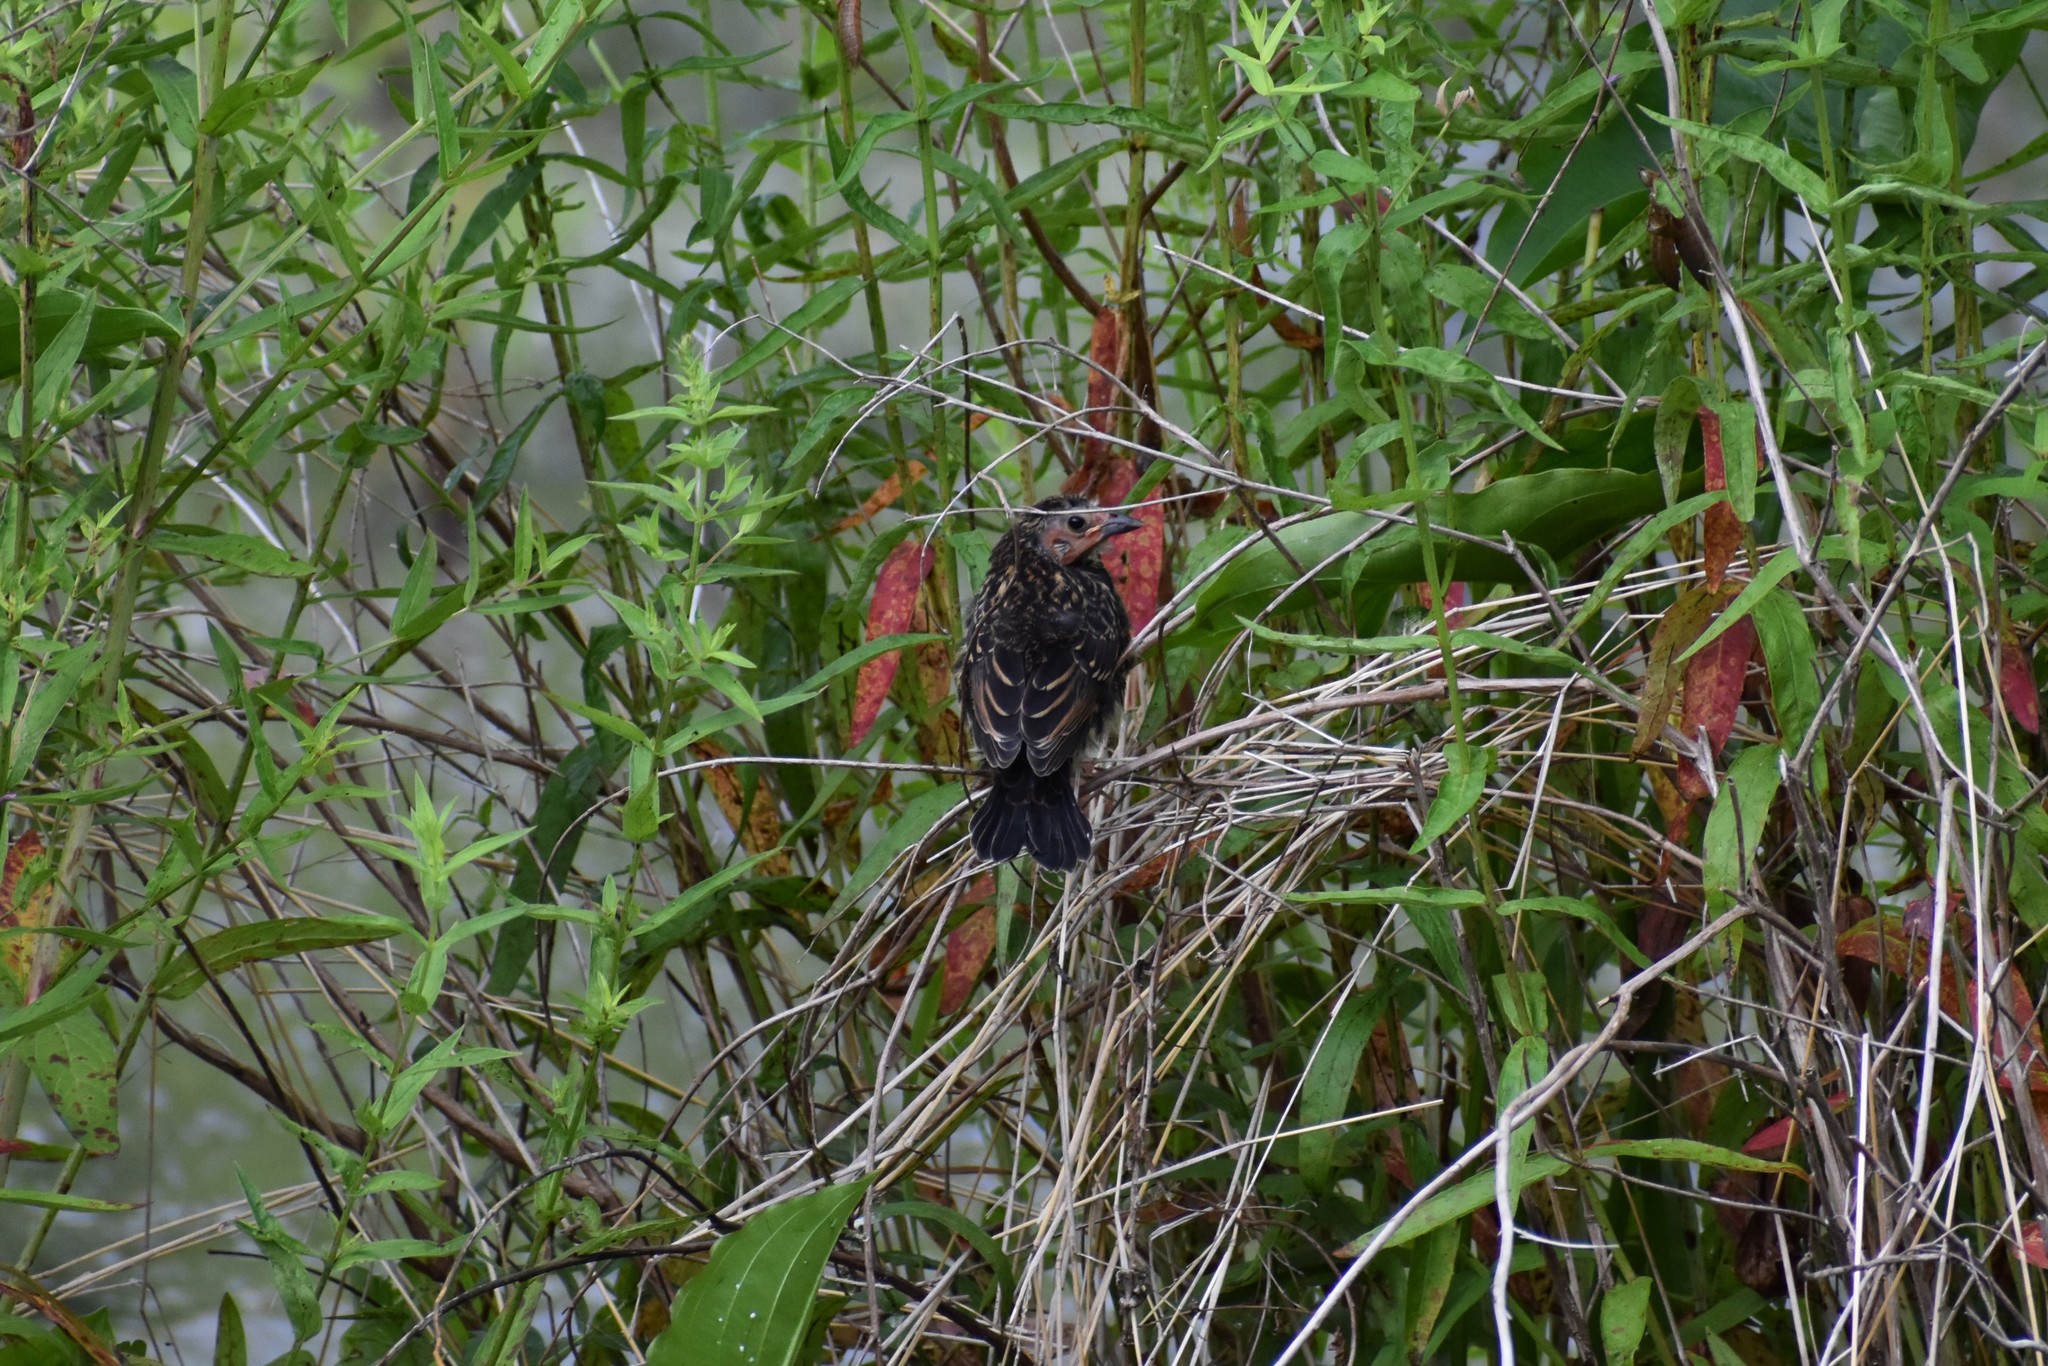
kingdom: Animalia
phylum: Chordata
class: Aves
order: Passeriformes
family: Icteridae
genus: Agelaius
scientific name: Agelaius phoeniceus
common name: Red-winged blackbird
